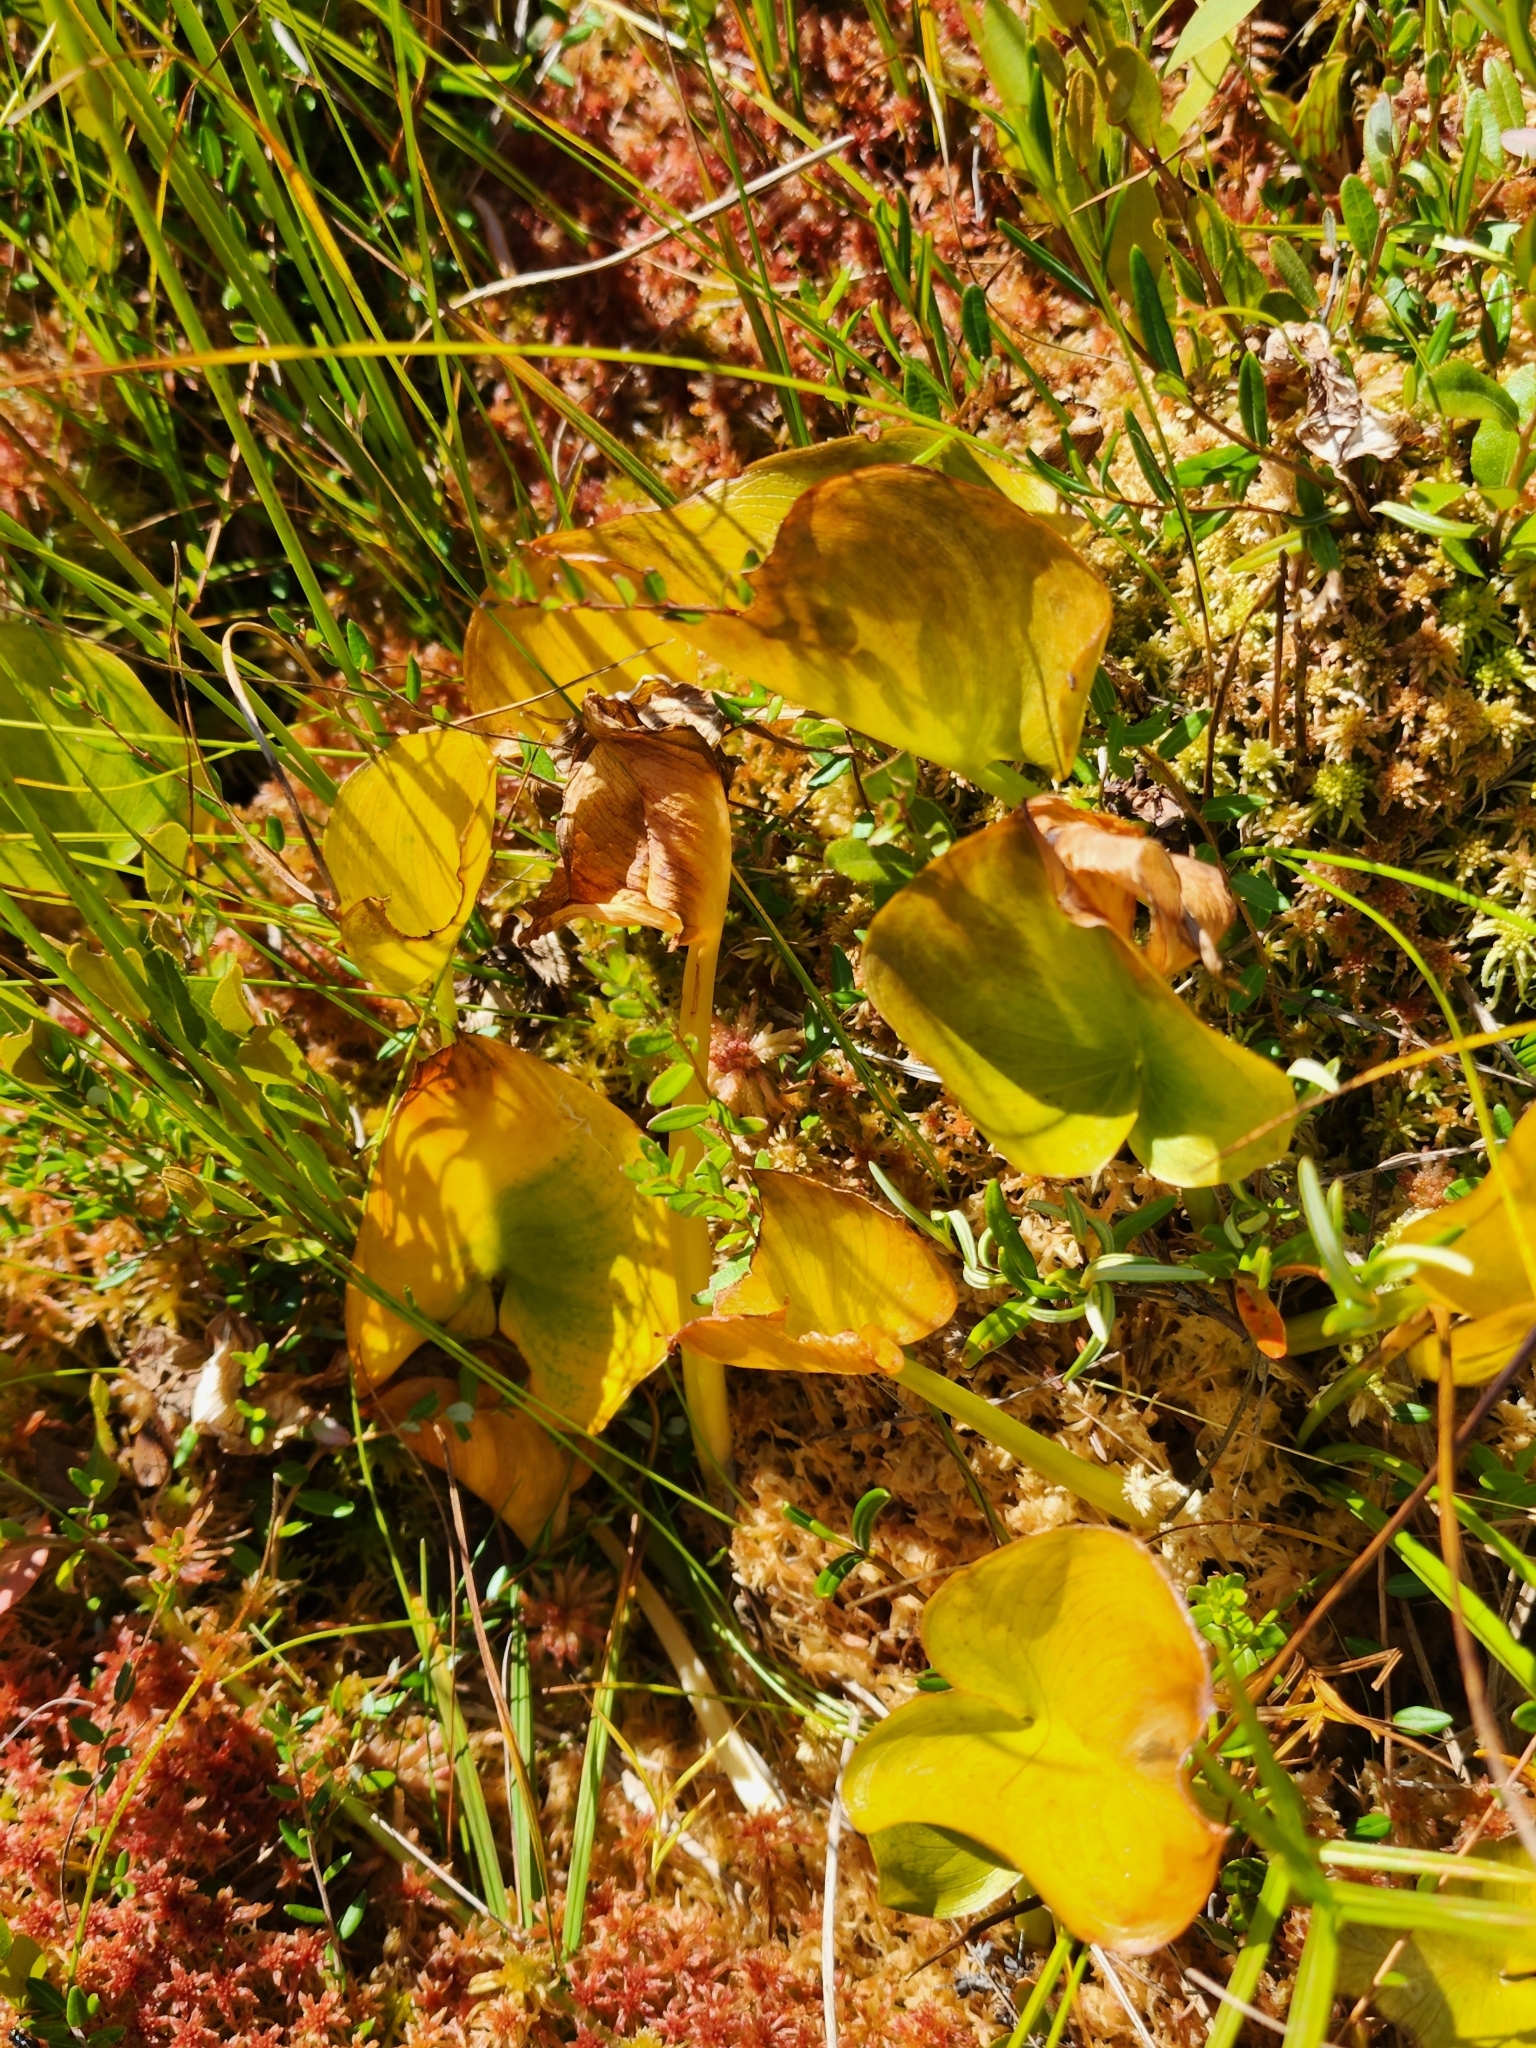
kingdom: Plantae
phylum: Tracheophyta
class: Liliopsida
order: Alismatales
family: Araceae
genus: Calla
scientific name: Calla palustris
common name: Bog arum
